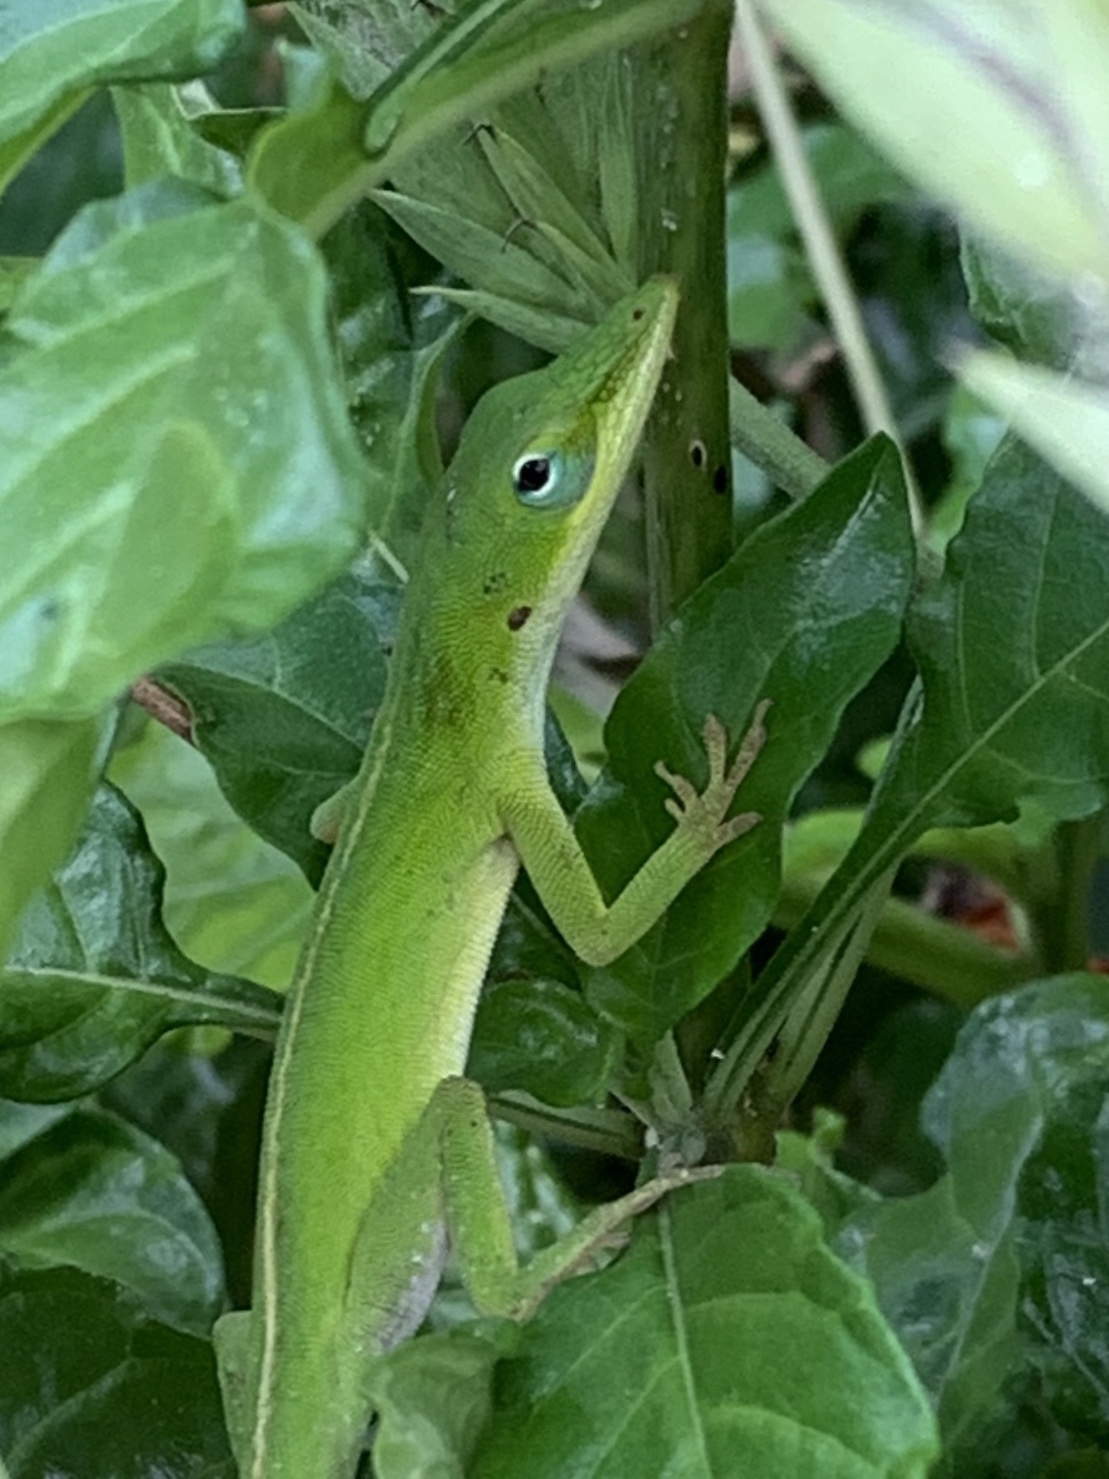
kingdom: Animalia
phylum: Chordata
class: Squamata
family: Dactyloidae
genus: Anolis
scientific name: Anolis carolinensis
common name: Green anole
